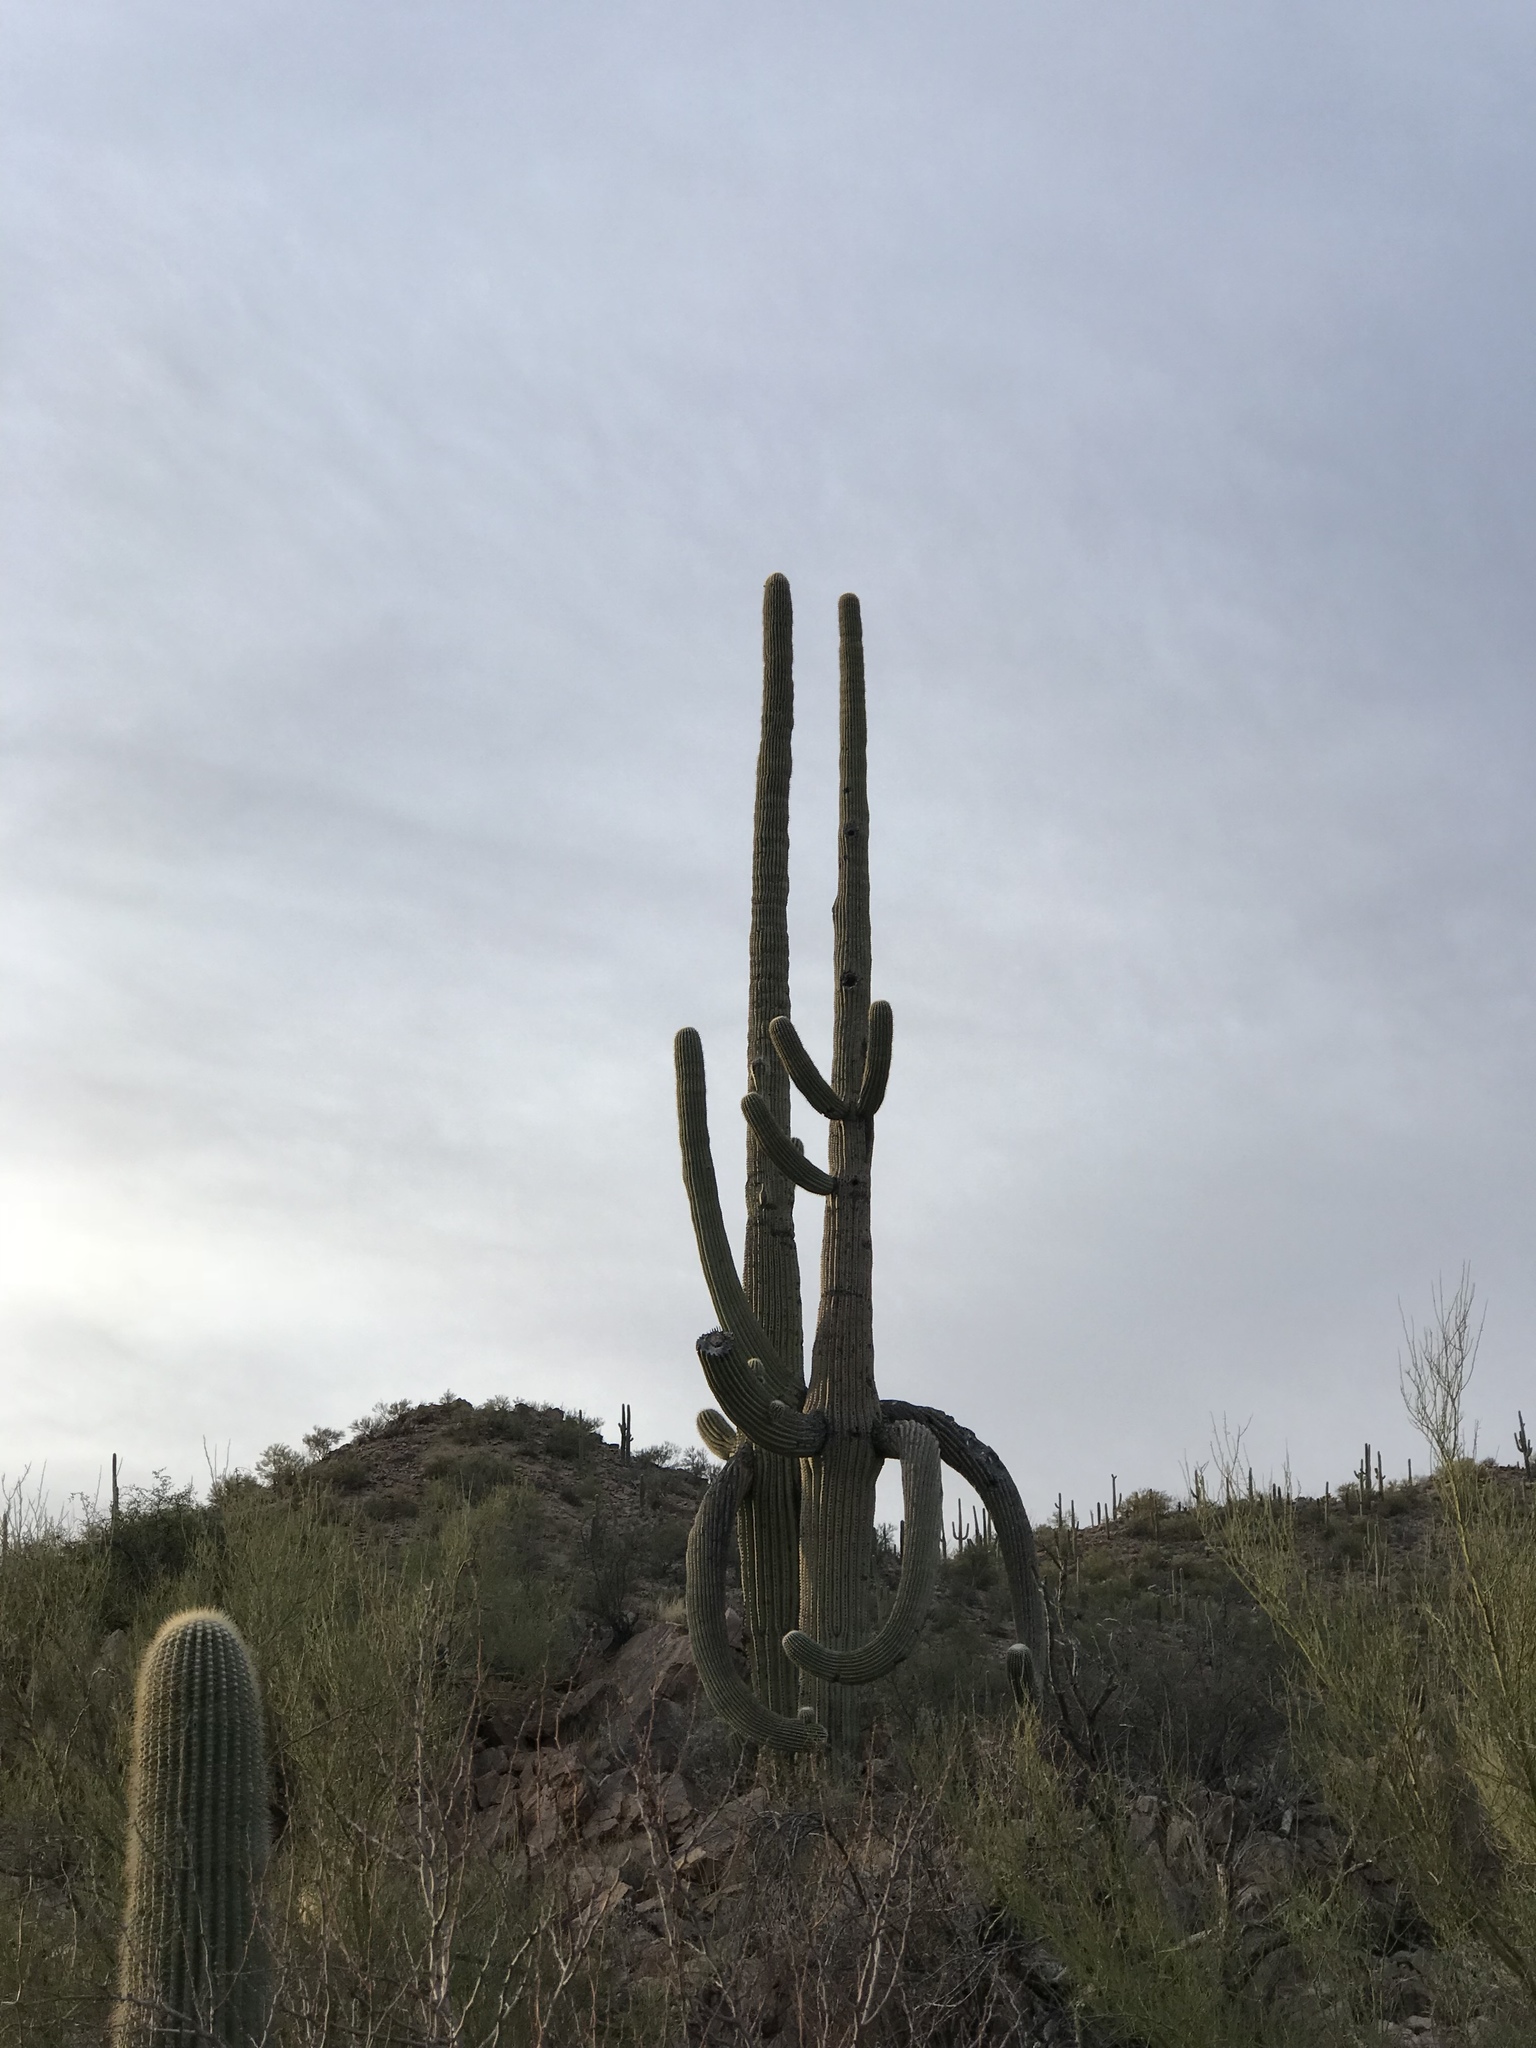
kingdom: Plantae
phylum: Tracheophyta
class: Magnoliopsida
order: Caryophyllales
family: Cactaceae
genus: Carnegiea
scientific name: Carnegiea gigantea
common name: Saguaro
